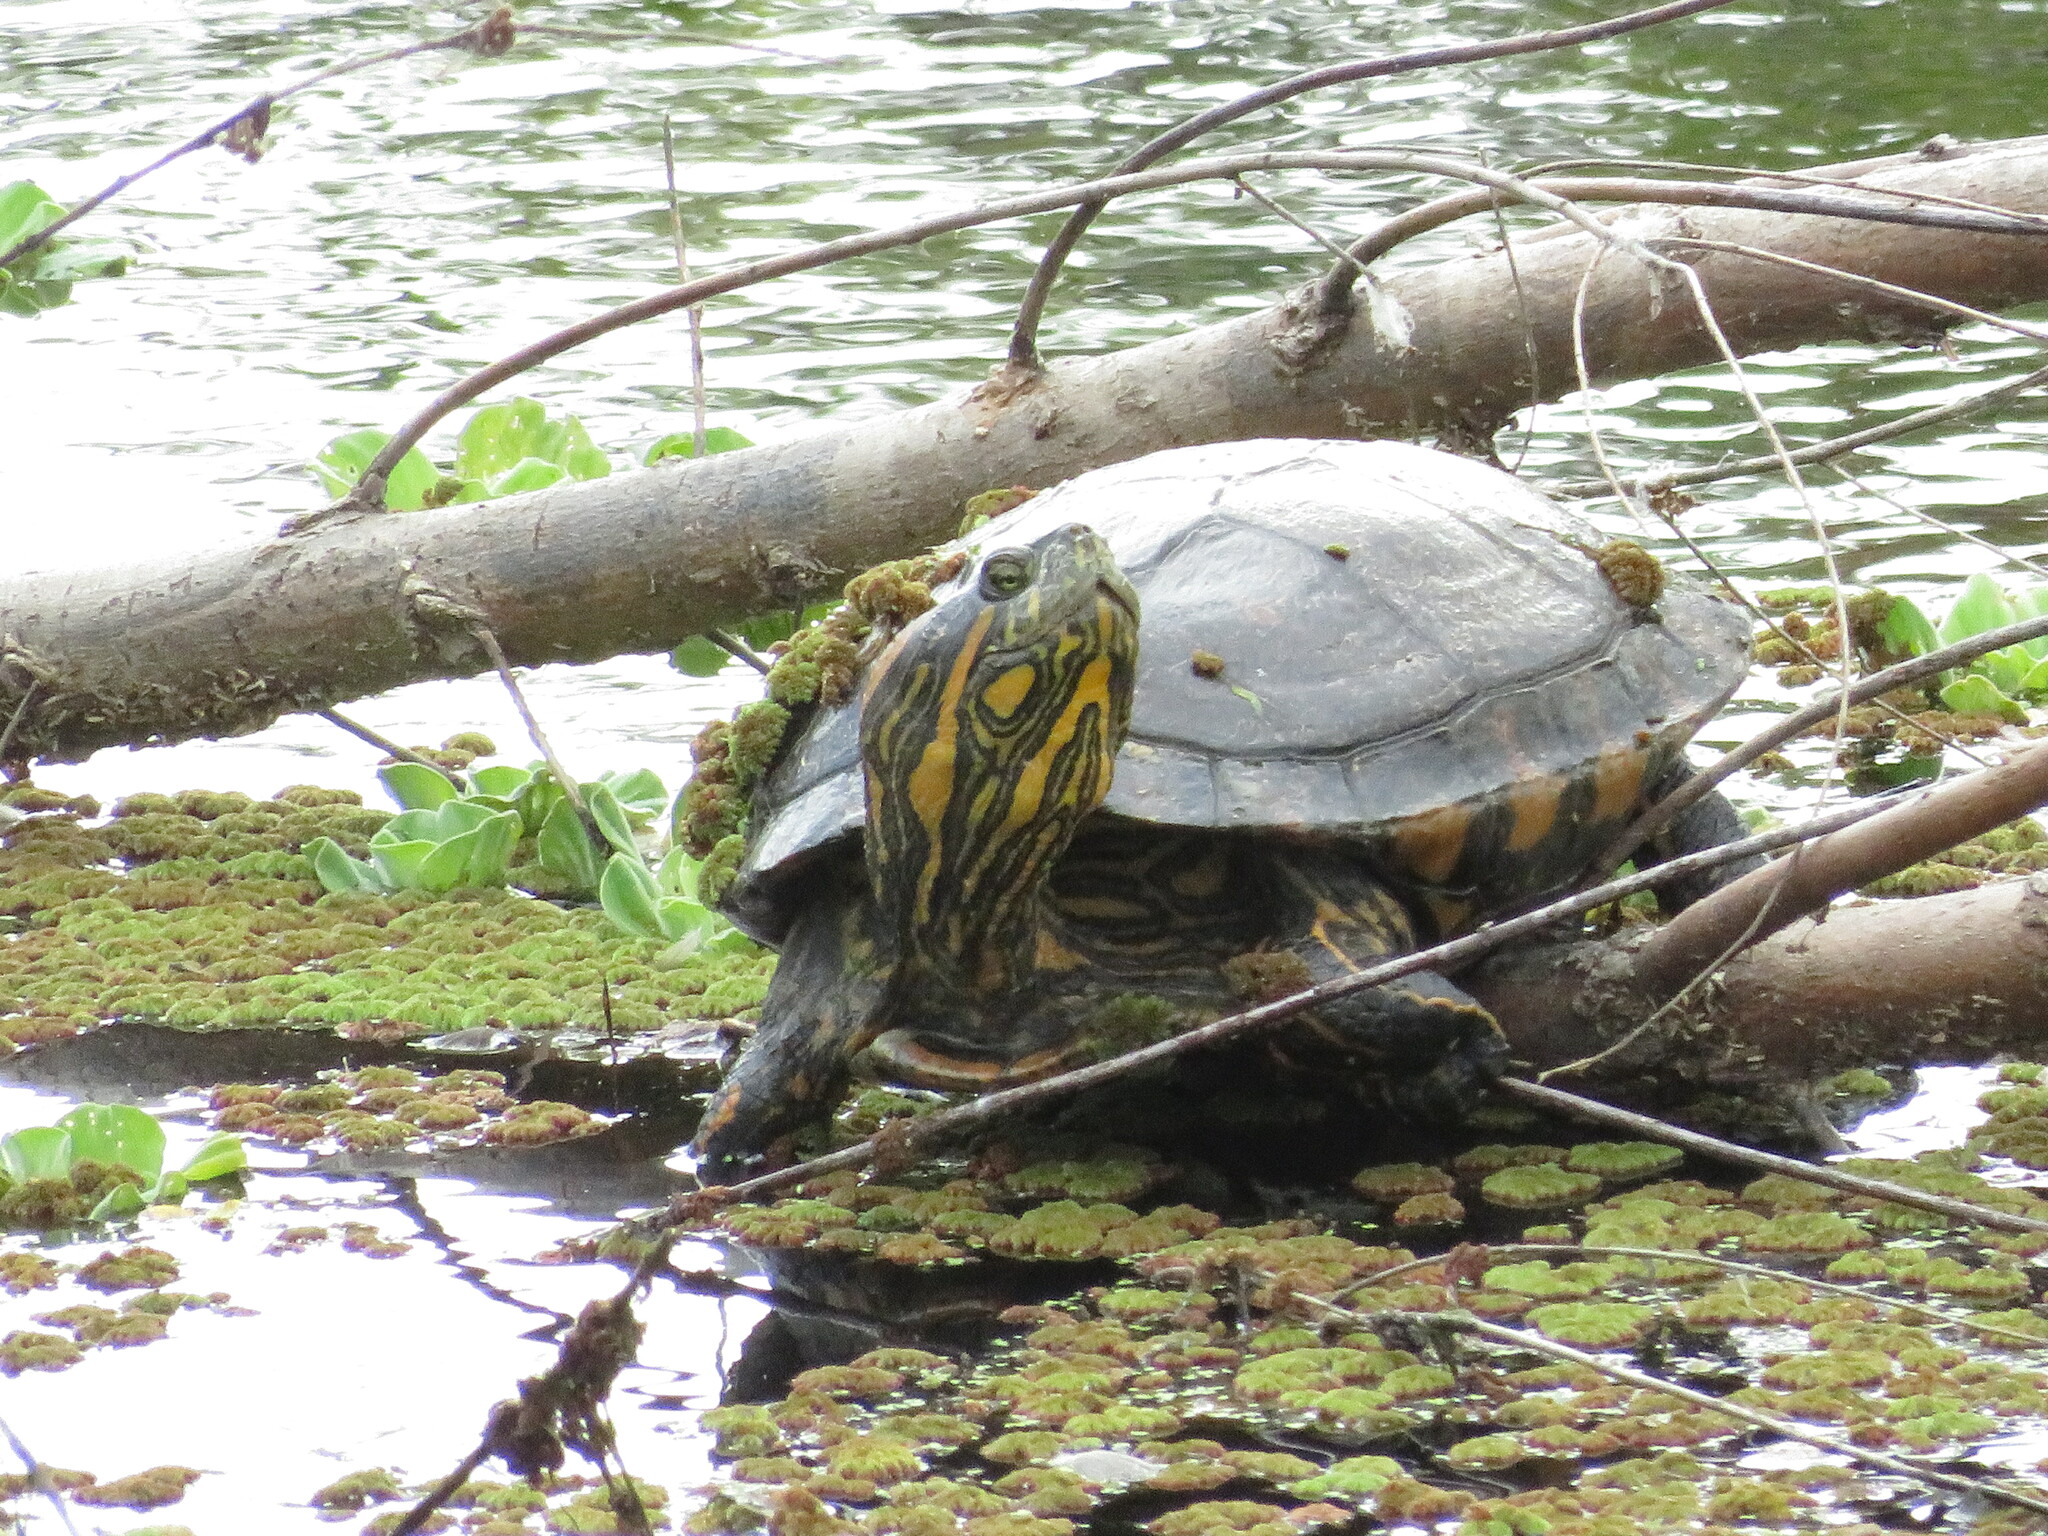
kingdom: Animalia
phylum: Chordata
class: Testudines
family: Emydidae
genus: Trachemys
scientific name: Trachemys dorbigni
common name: Black-bellied slider
